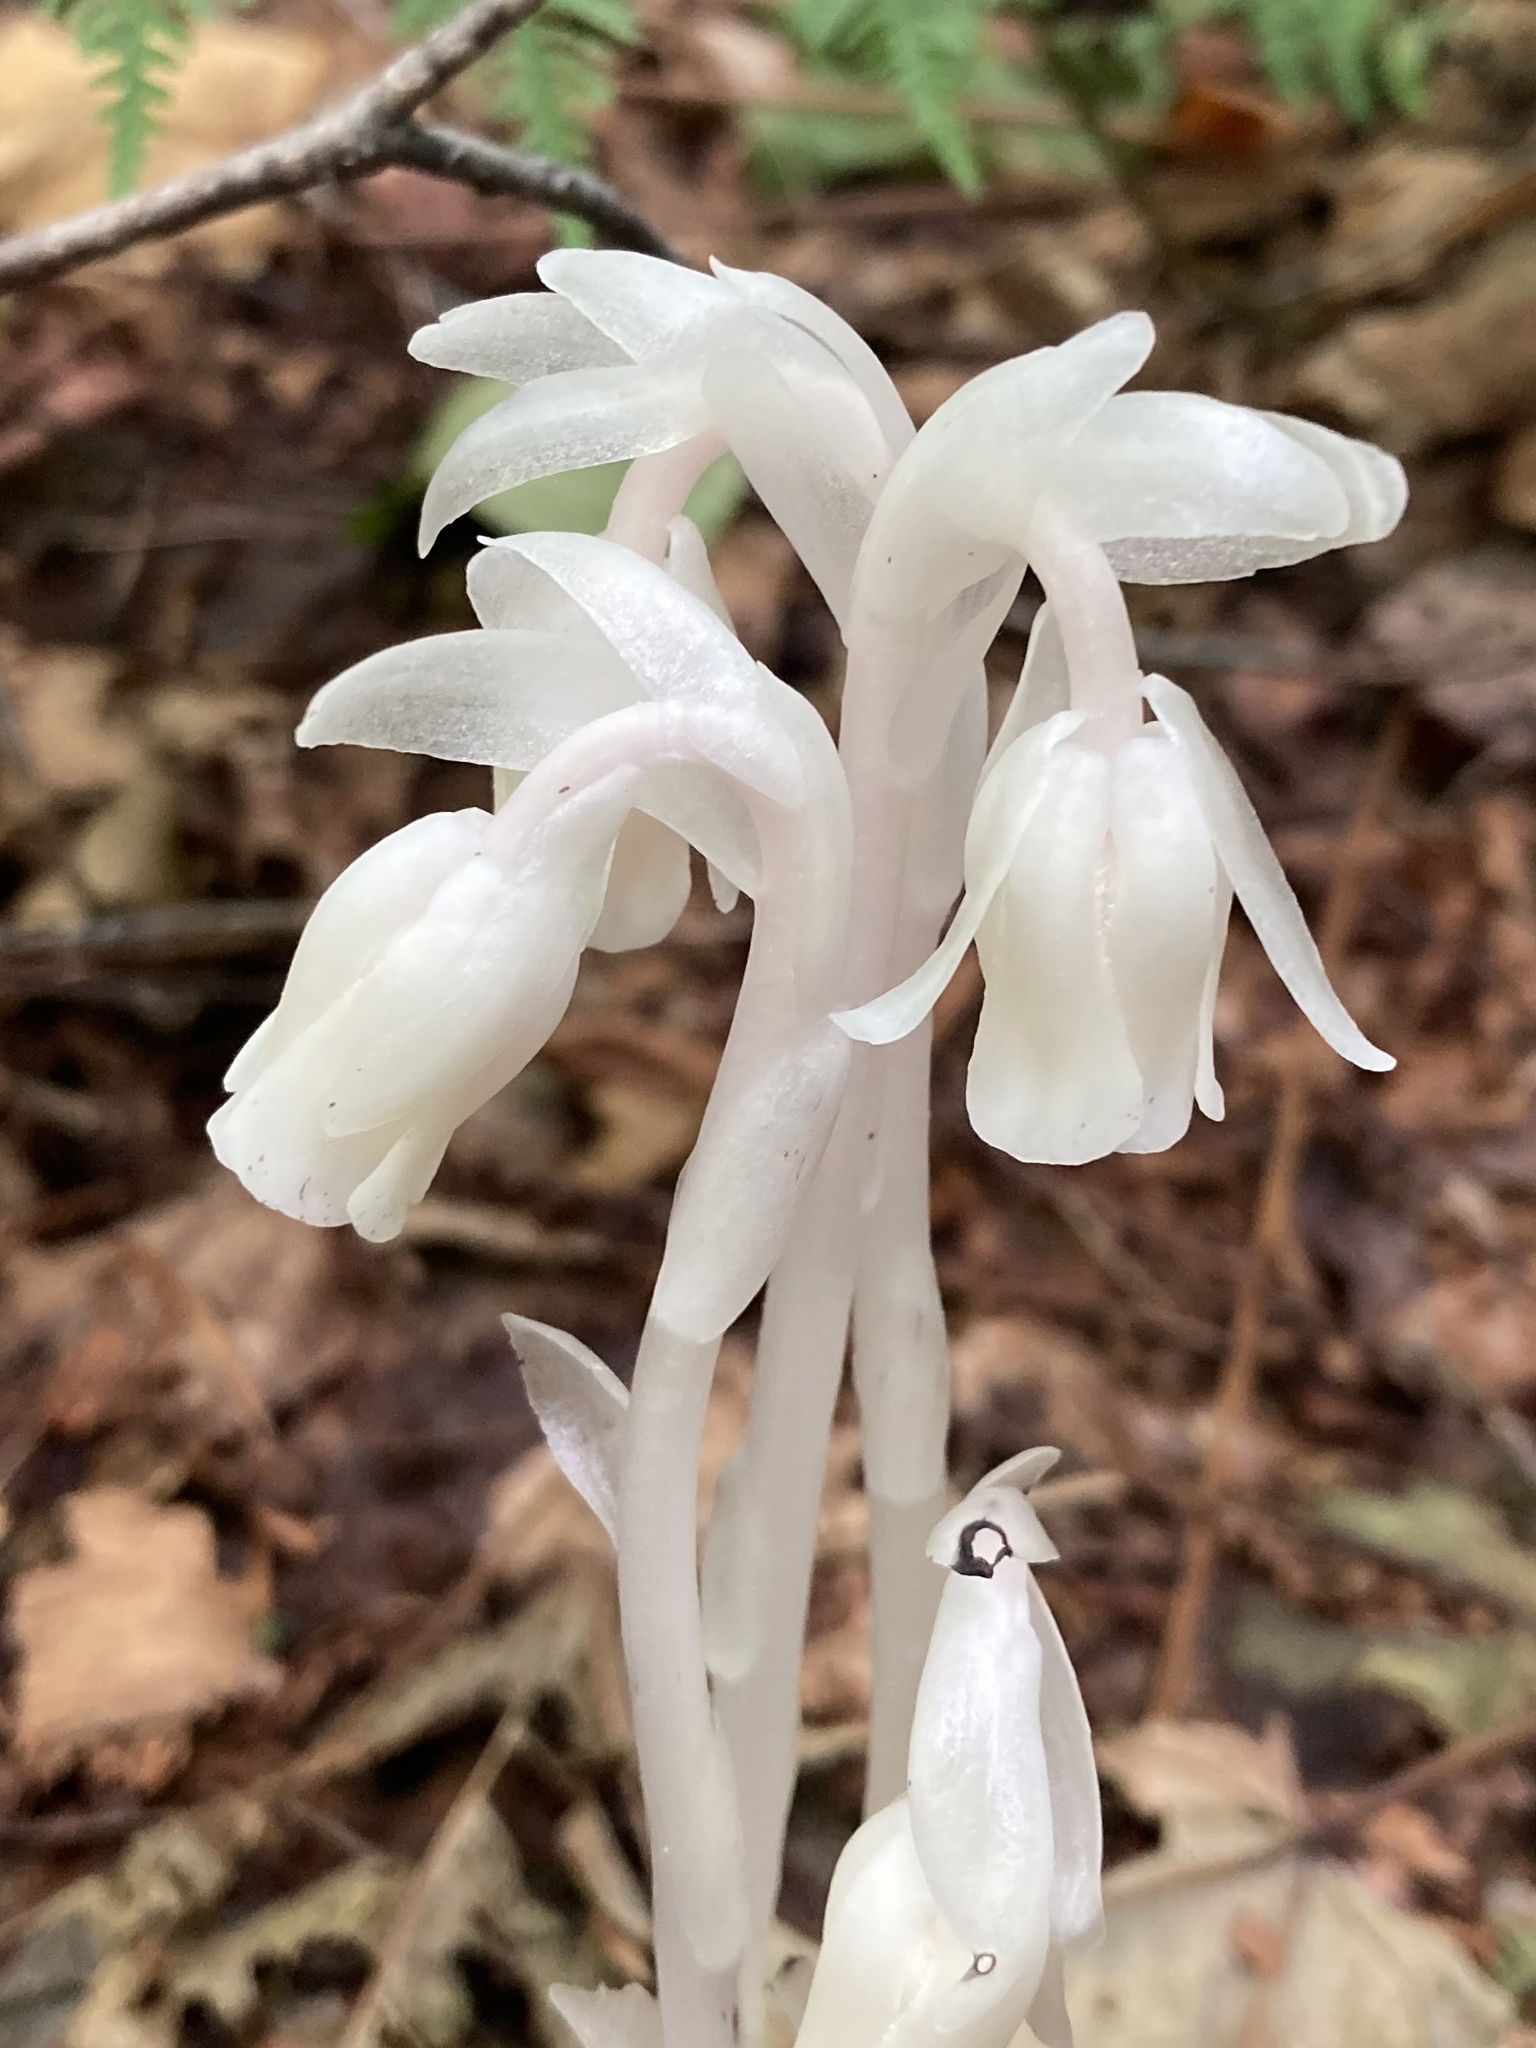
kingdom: Plantae
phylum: Tracheophyta
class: Magnoliopsida
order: Ericales
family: Ericaceae
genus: Monotropa
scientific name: Monotropa uniflora
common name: Convulsion root
